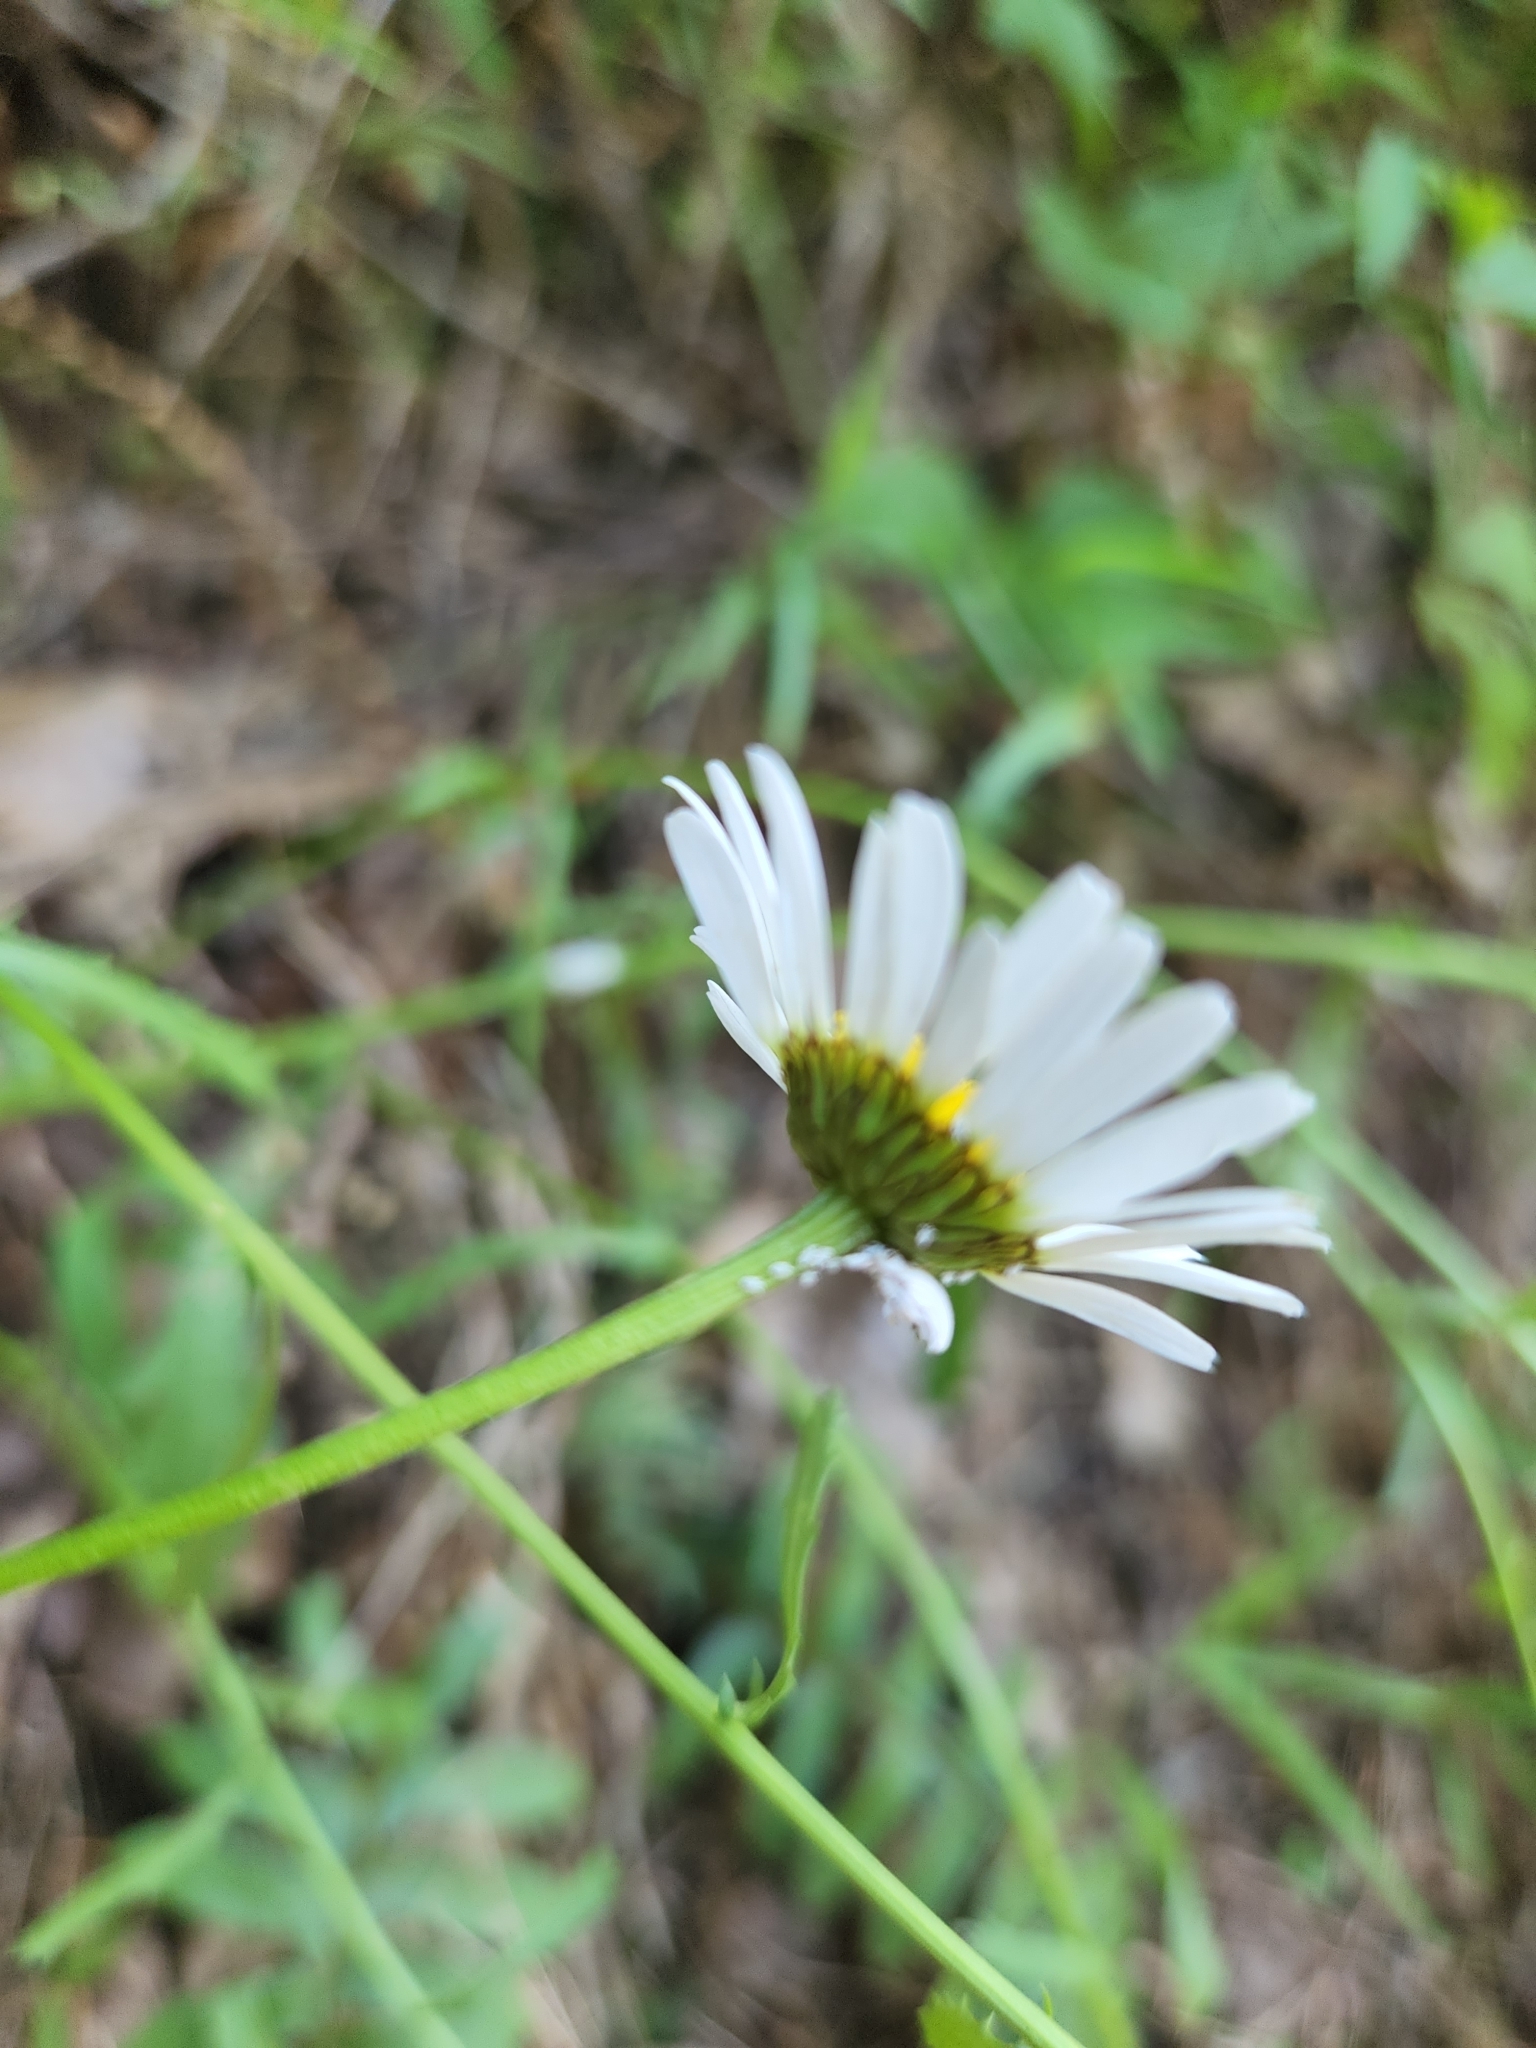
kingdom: Plantae
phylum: Tracheophyta
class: Magnoliopsida
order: Asterales
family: Asteraceae
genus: Leucanthemum
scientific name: Leucanthemum vulgare
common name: Oxeye daisy
